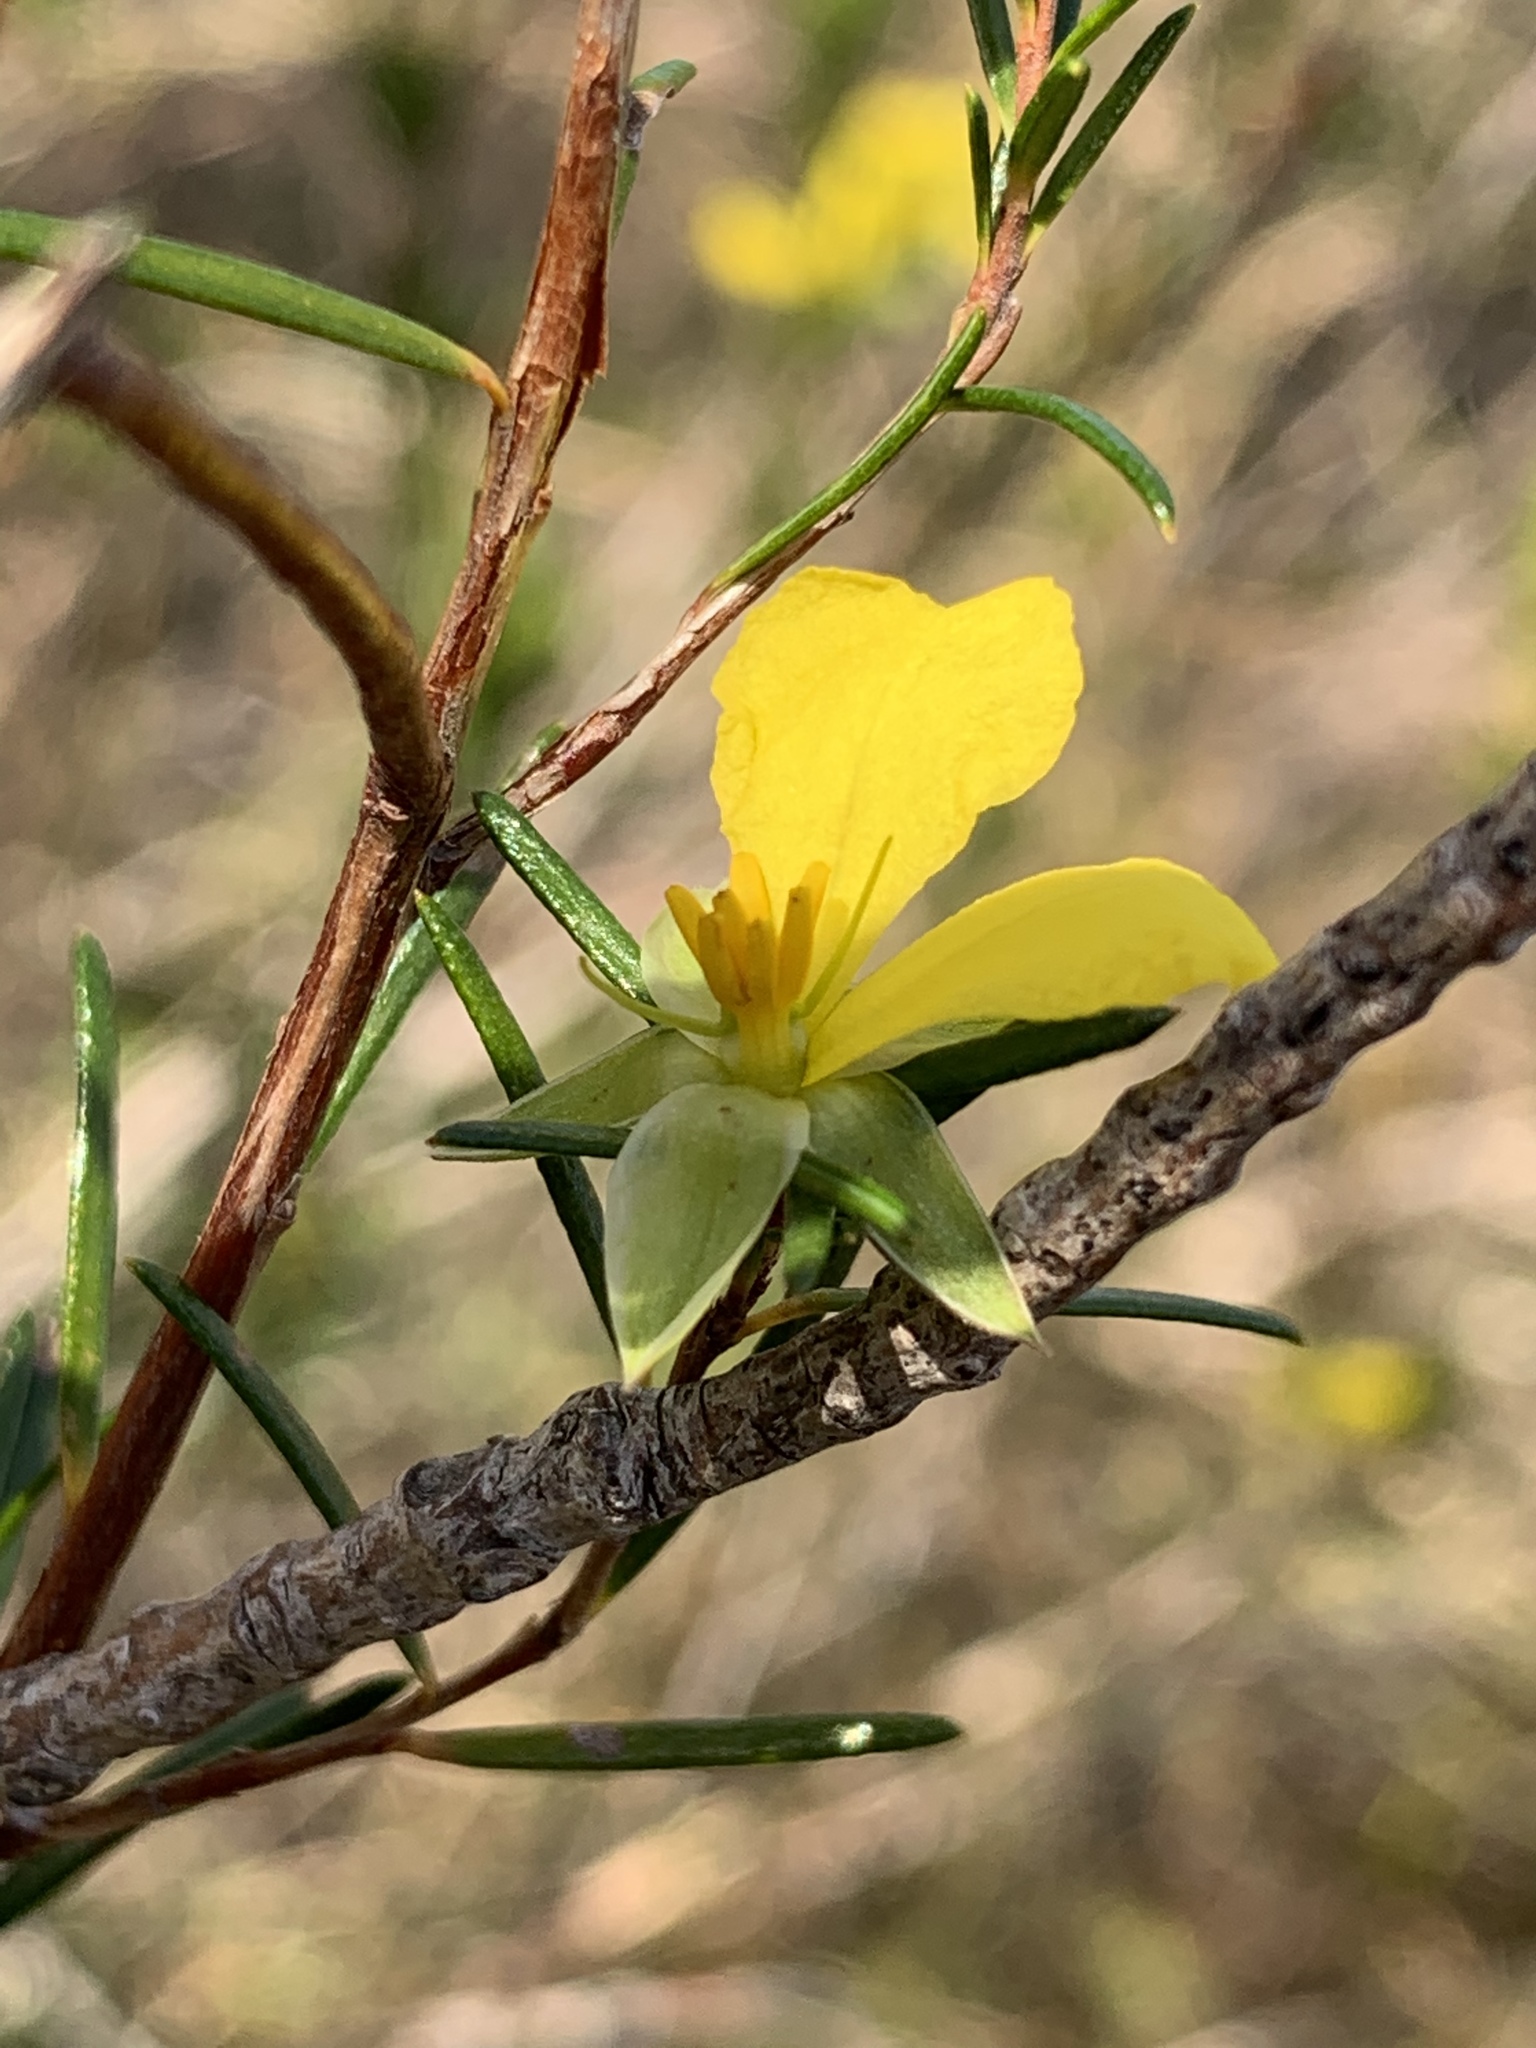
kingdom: Plantae
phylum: Tracheophyta
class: Magnoliopsida
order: Dilleniales
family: Dilleniaceae
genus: Hibbertia
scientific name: Hibbertia stricta
